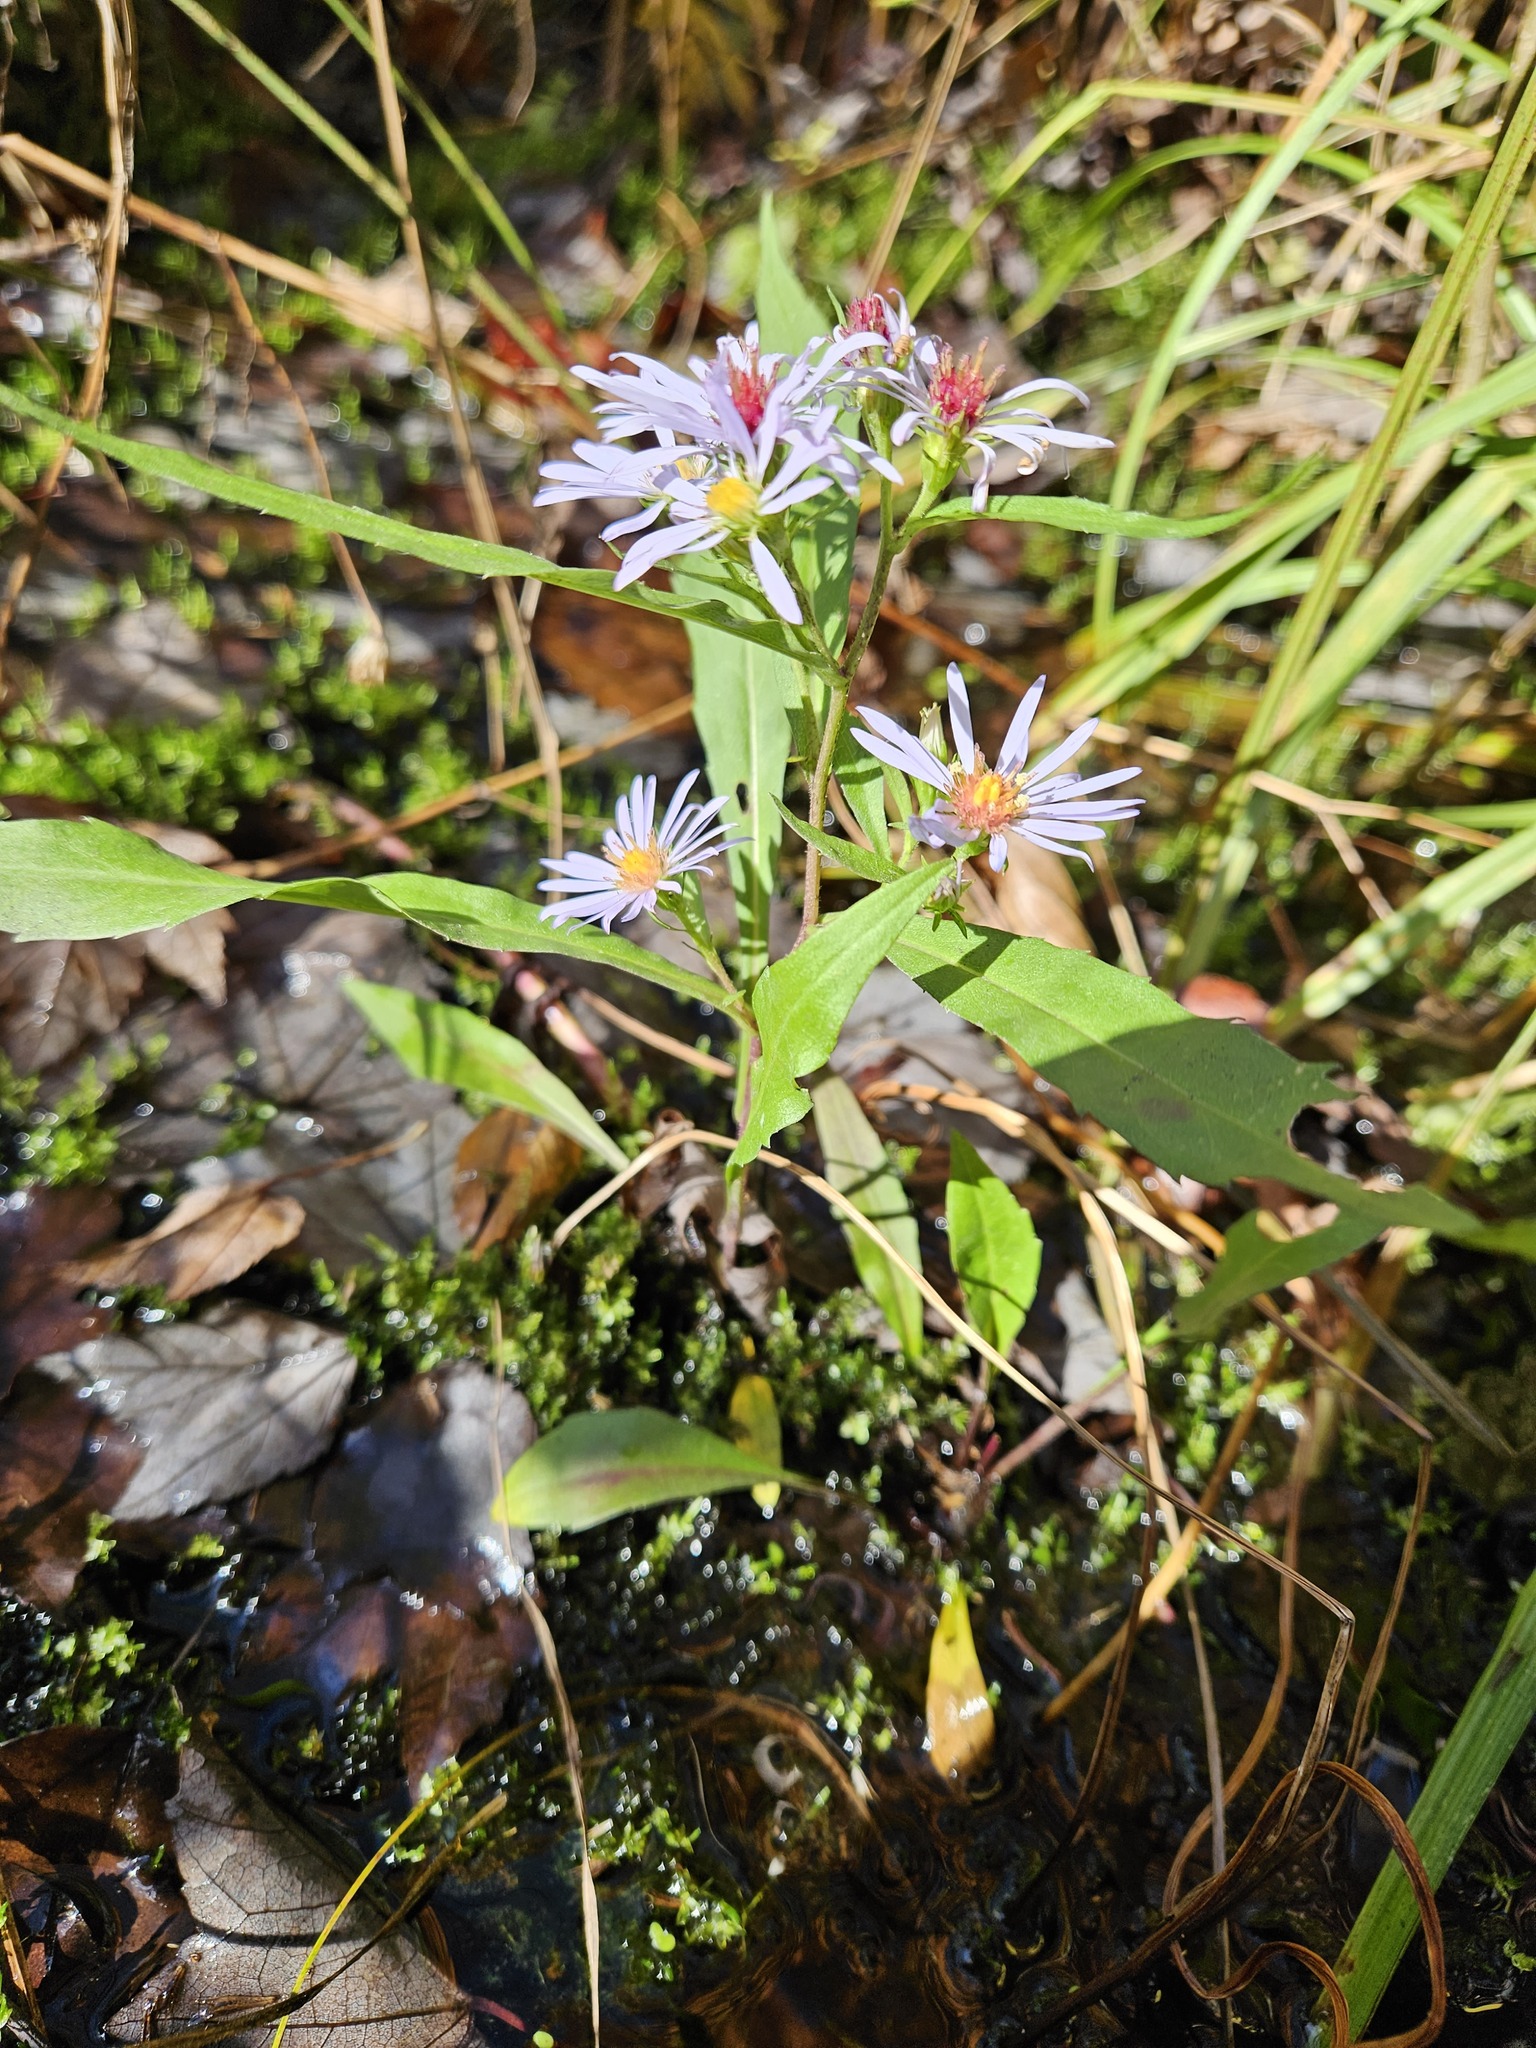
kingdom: Plantae
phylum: Tracheophyta
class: Magnoliopsida
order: Asterales
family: Asteraceae
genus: Symphyotrichum
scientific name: Symphyotrichum puniceum
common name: Bog aster
